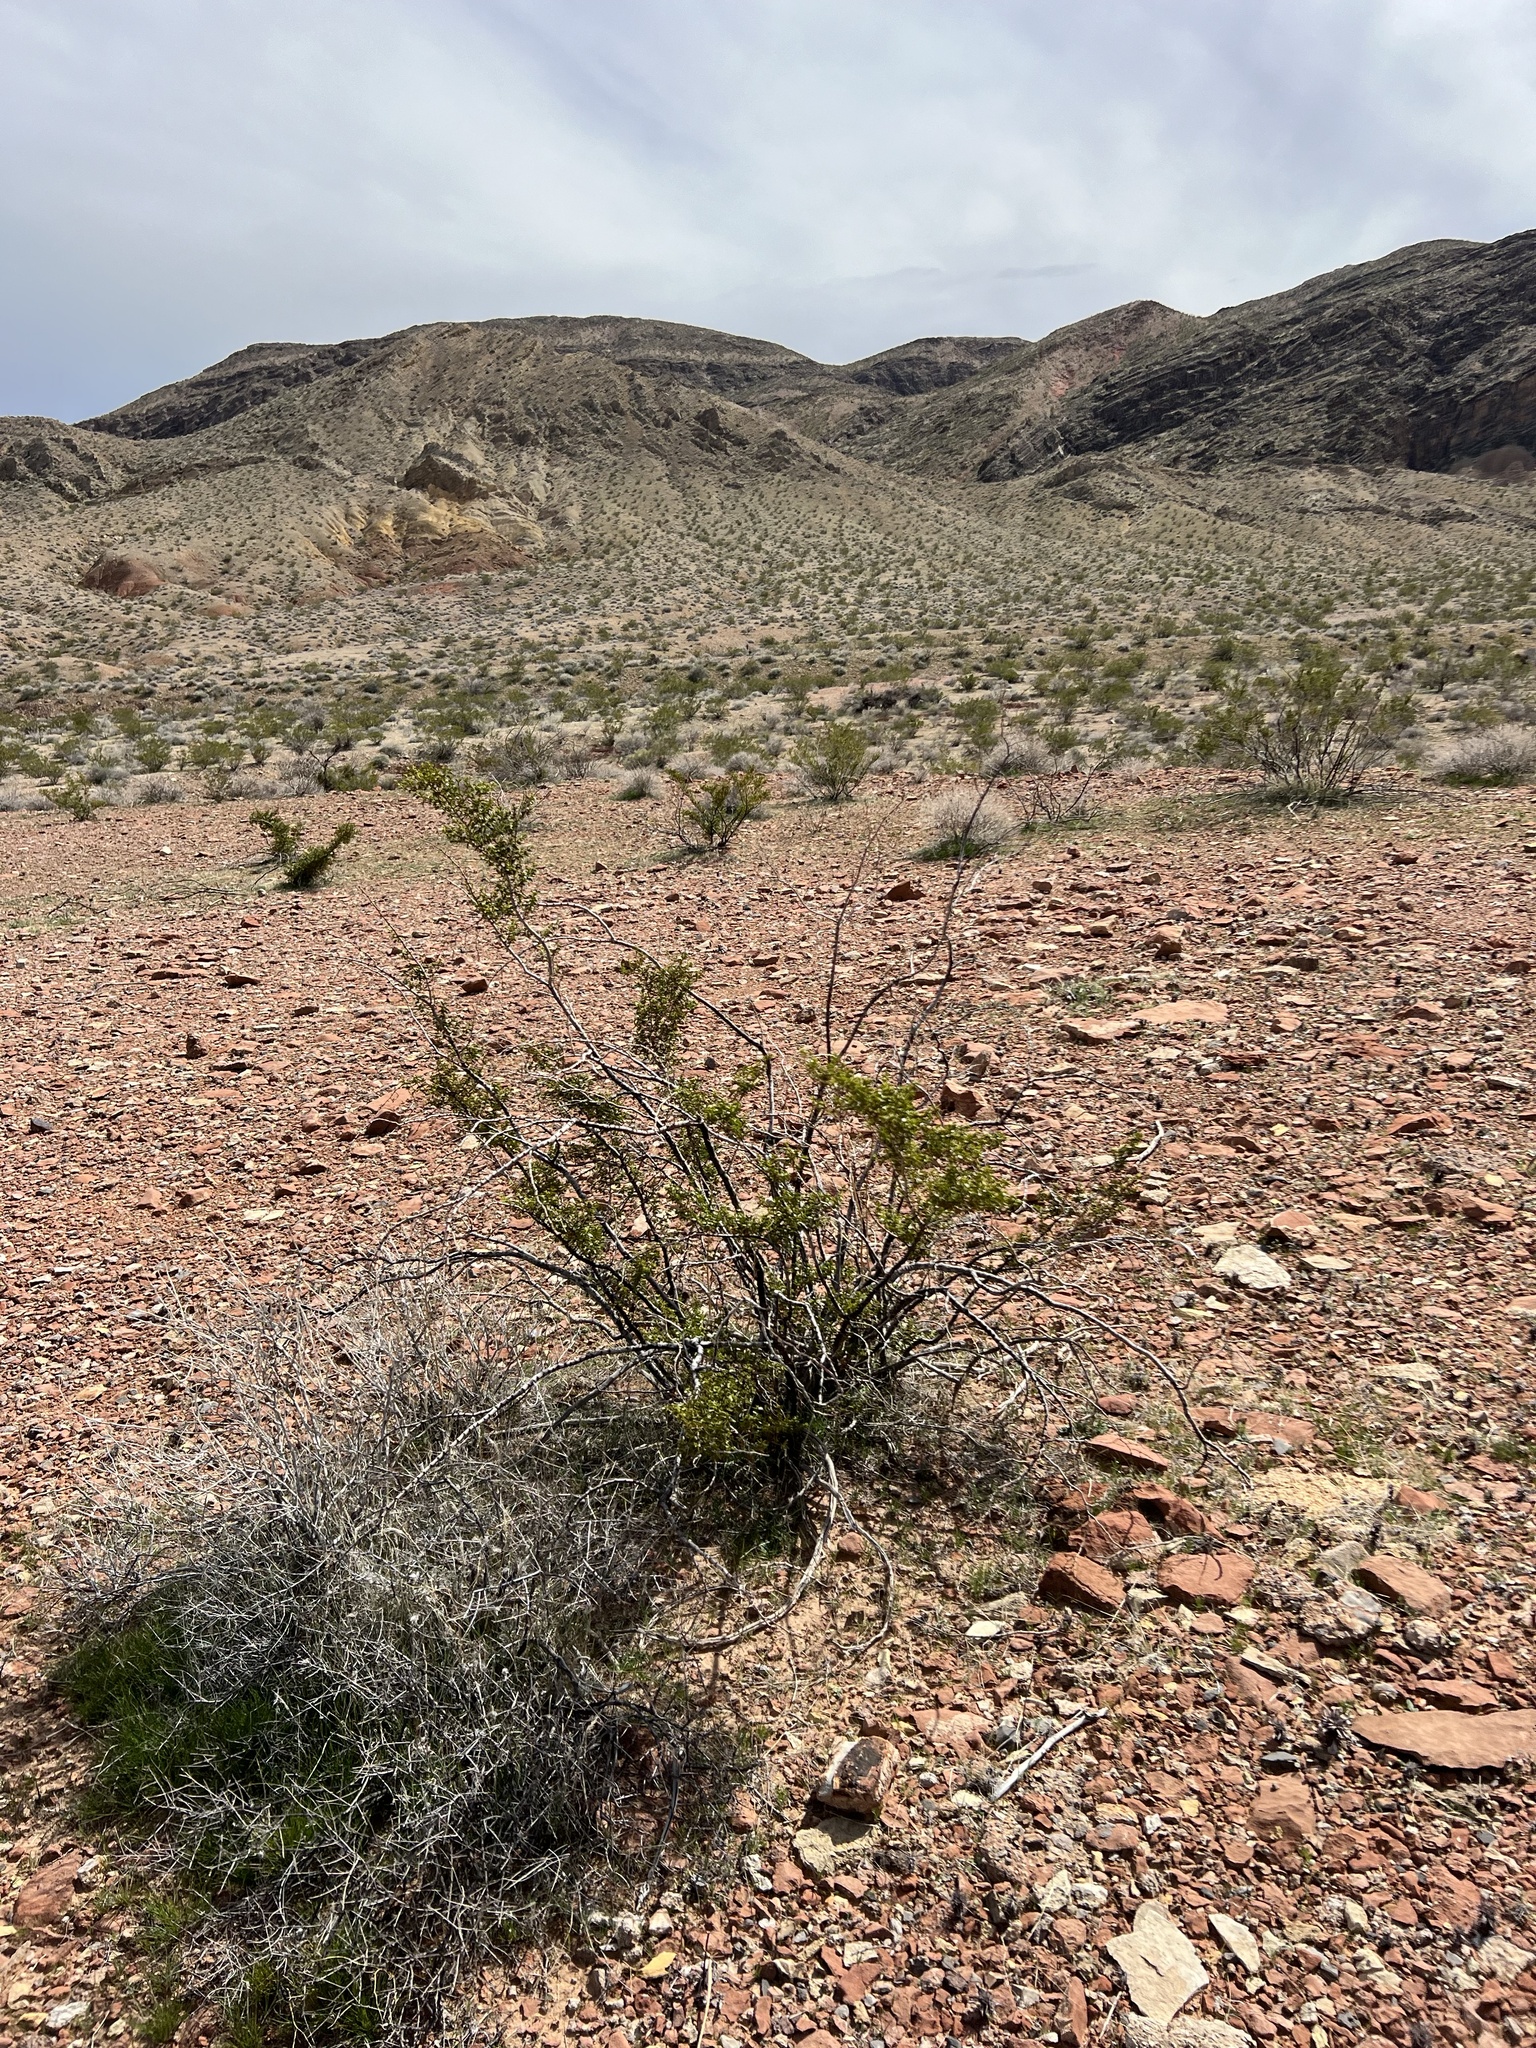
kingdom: Plantae
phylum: Tracheophyta
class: Magnoliopsida
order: Zygophyllales
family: Zygophyllaceae
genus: Larrea
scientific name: Larrea tridentata
